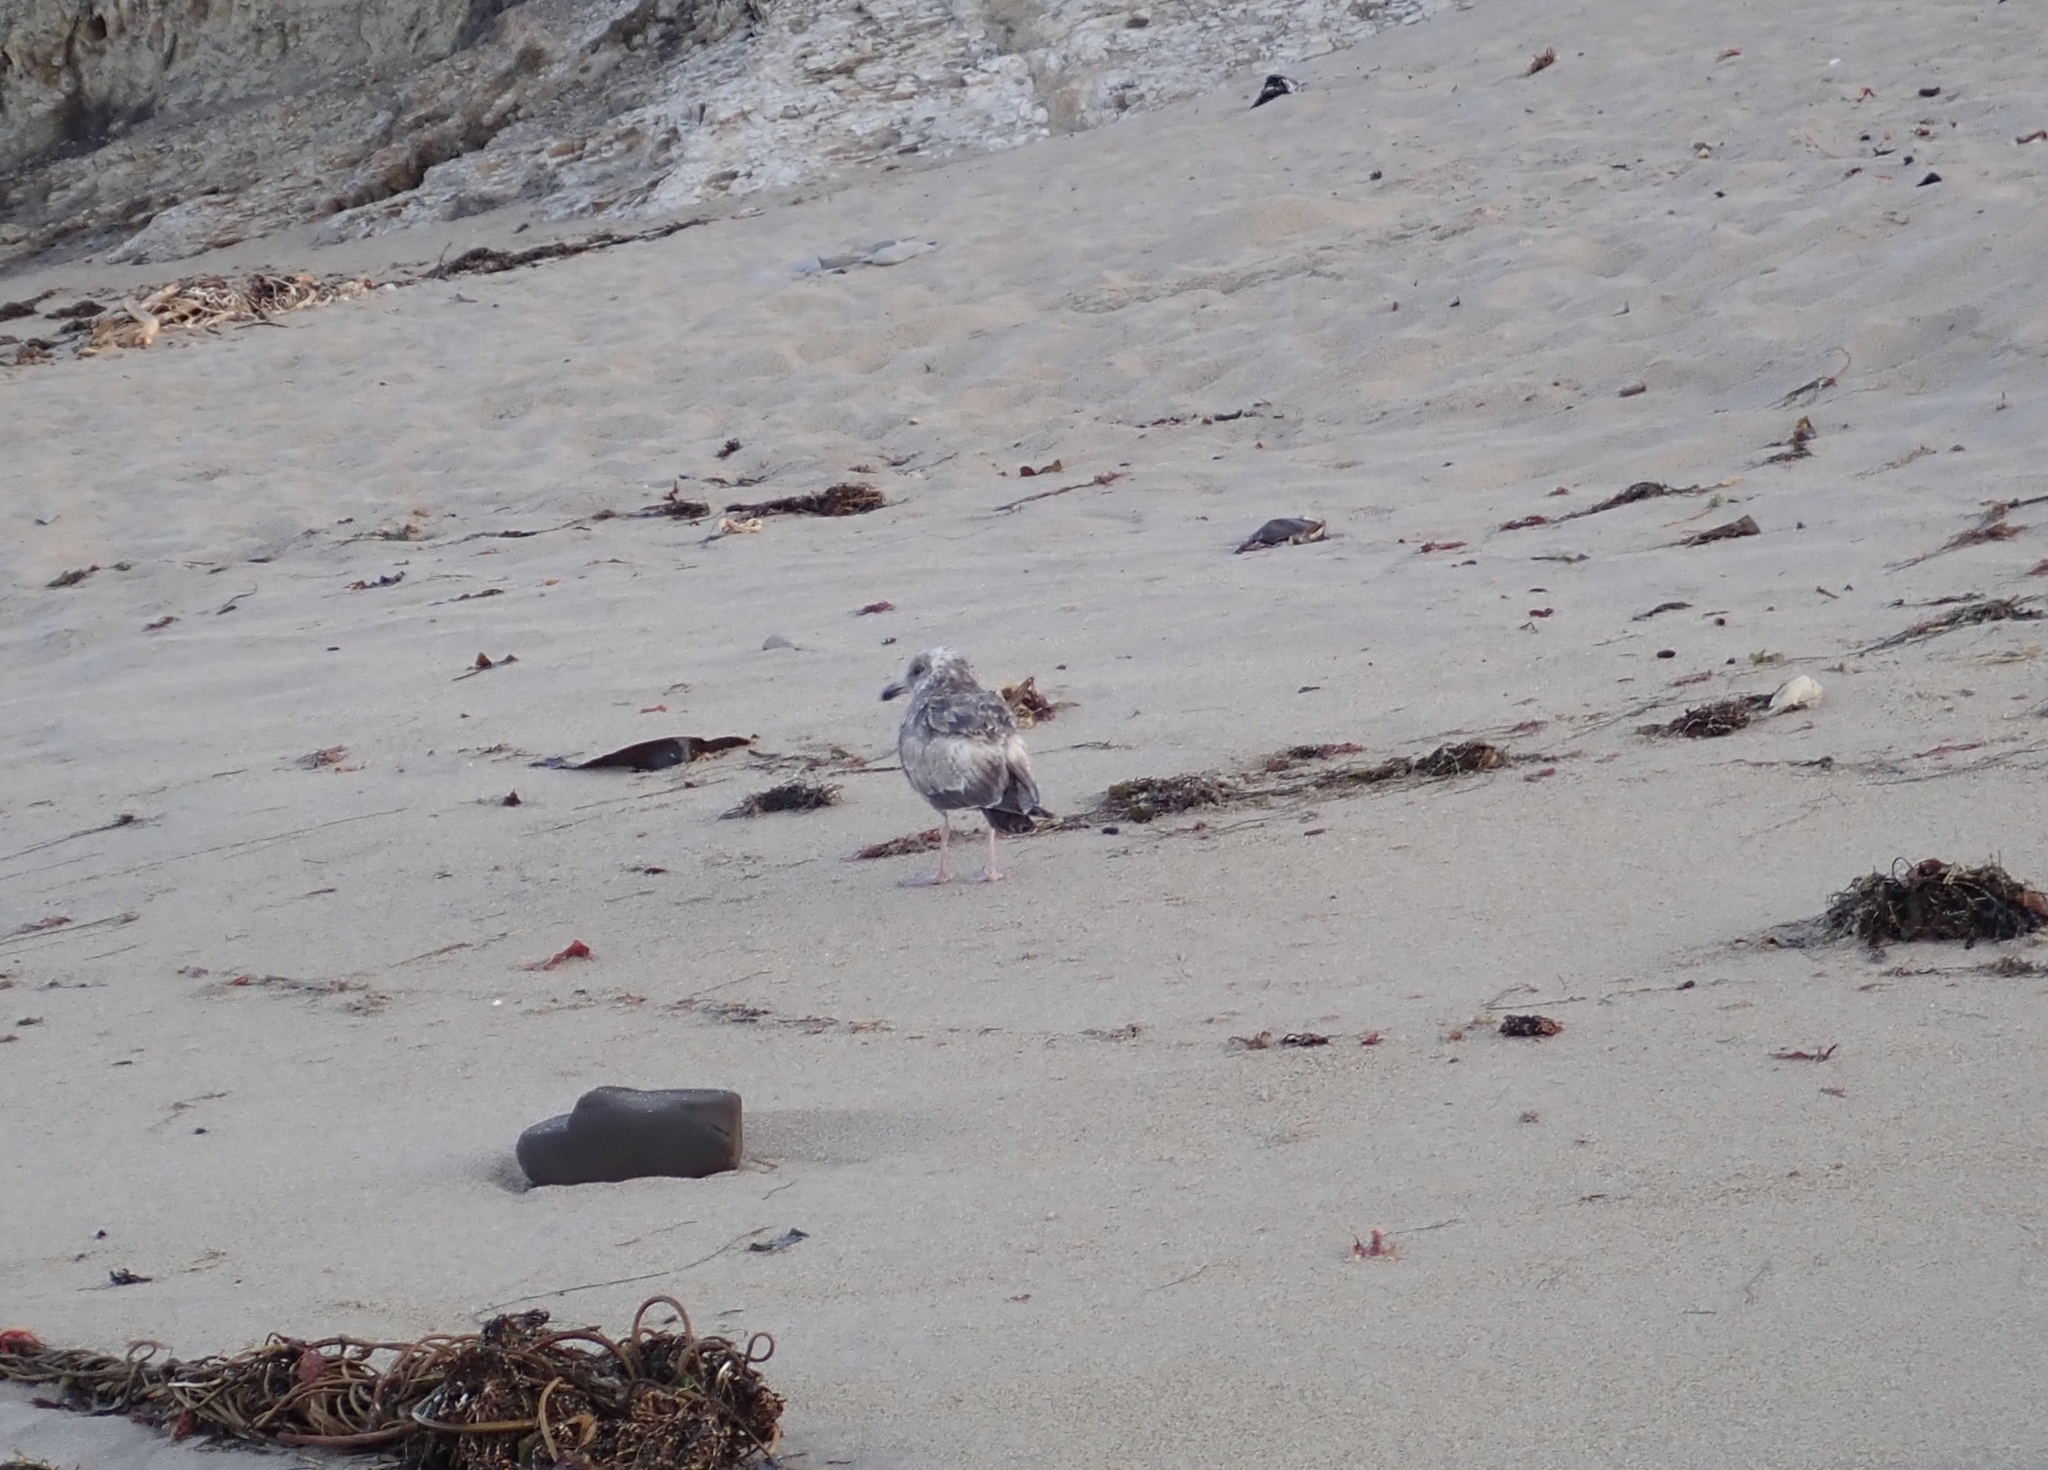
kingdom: Animalia
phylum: Chordata
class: Aves
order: Charadriiformes
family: Laridae
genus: Larus
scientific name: Larus occidentalis
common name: Western gull
